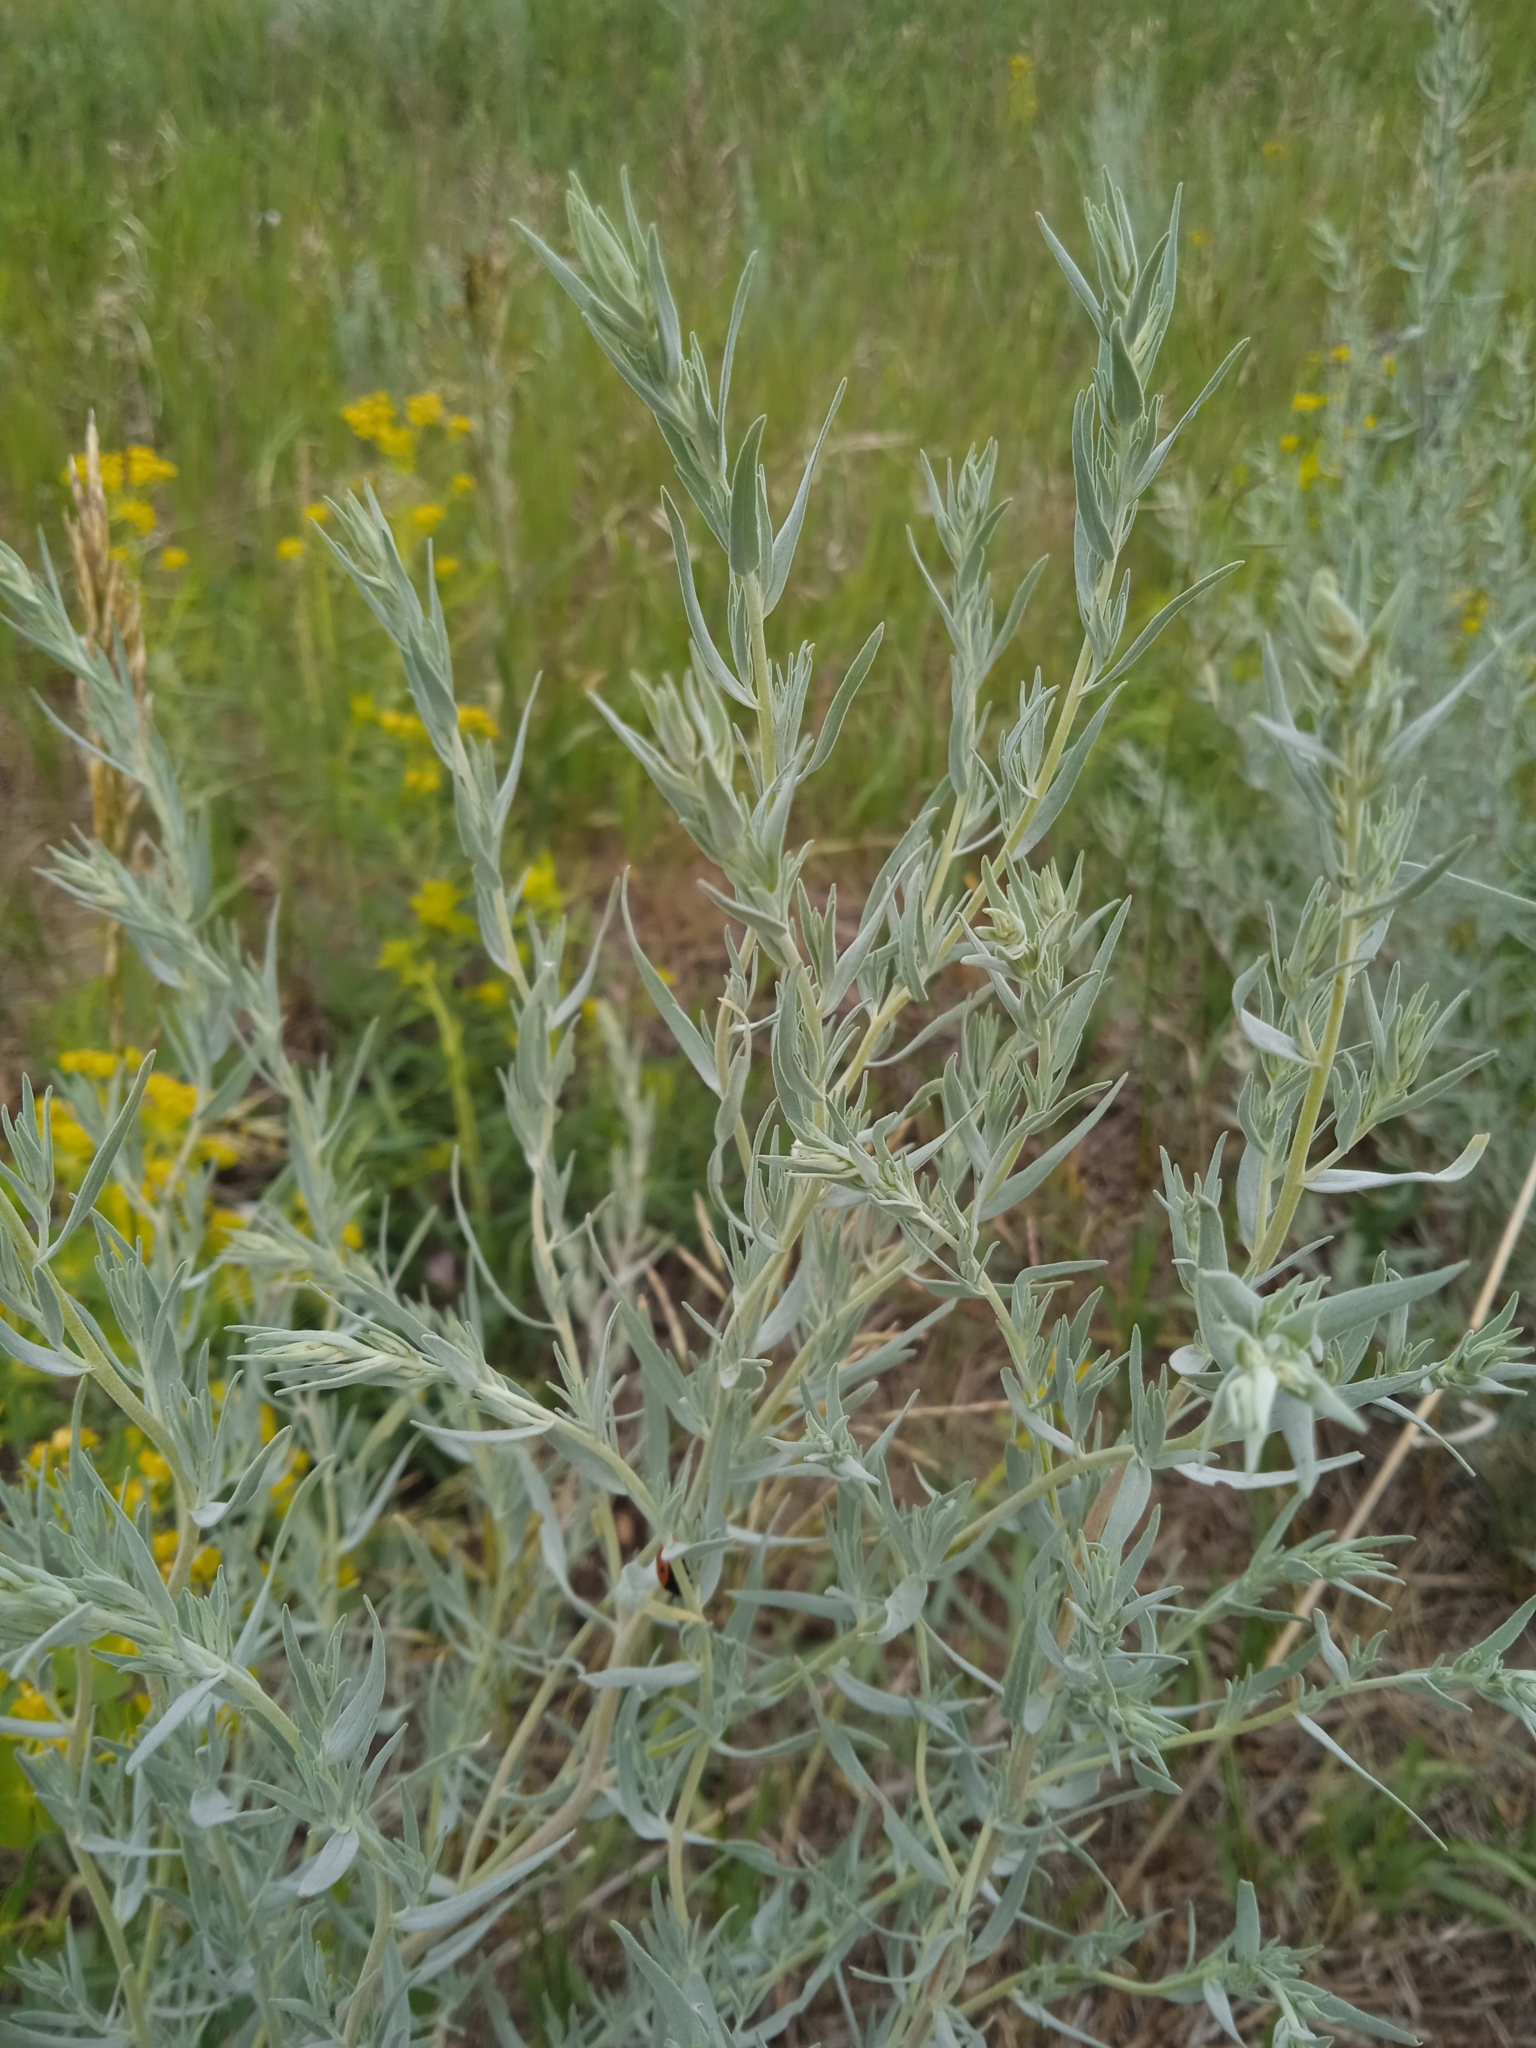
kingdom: Plantae
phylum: Tracheophyta
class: Magnoliopsida
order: Asterales
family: Asteraceae
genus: Artemisia
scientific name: Artemisia glauca
